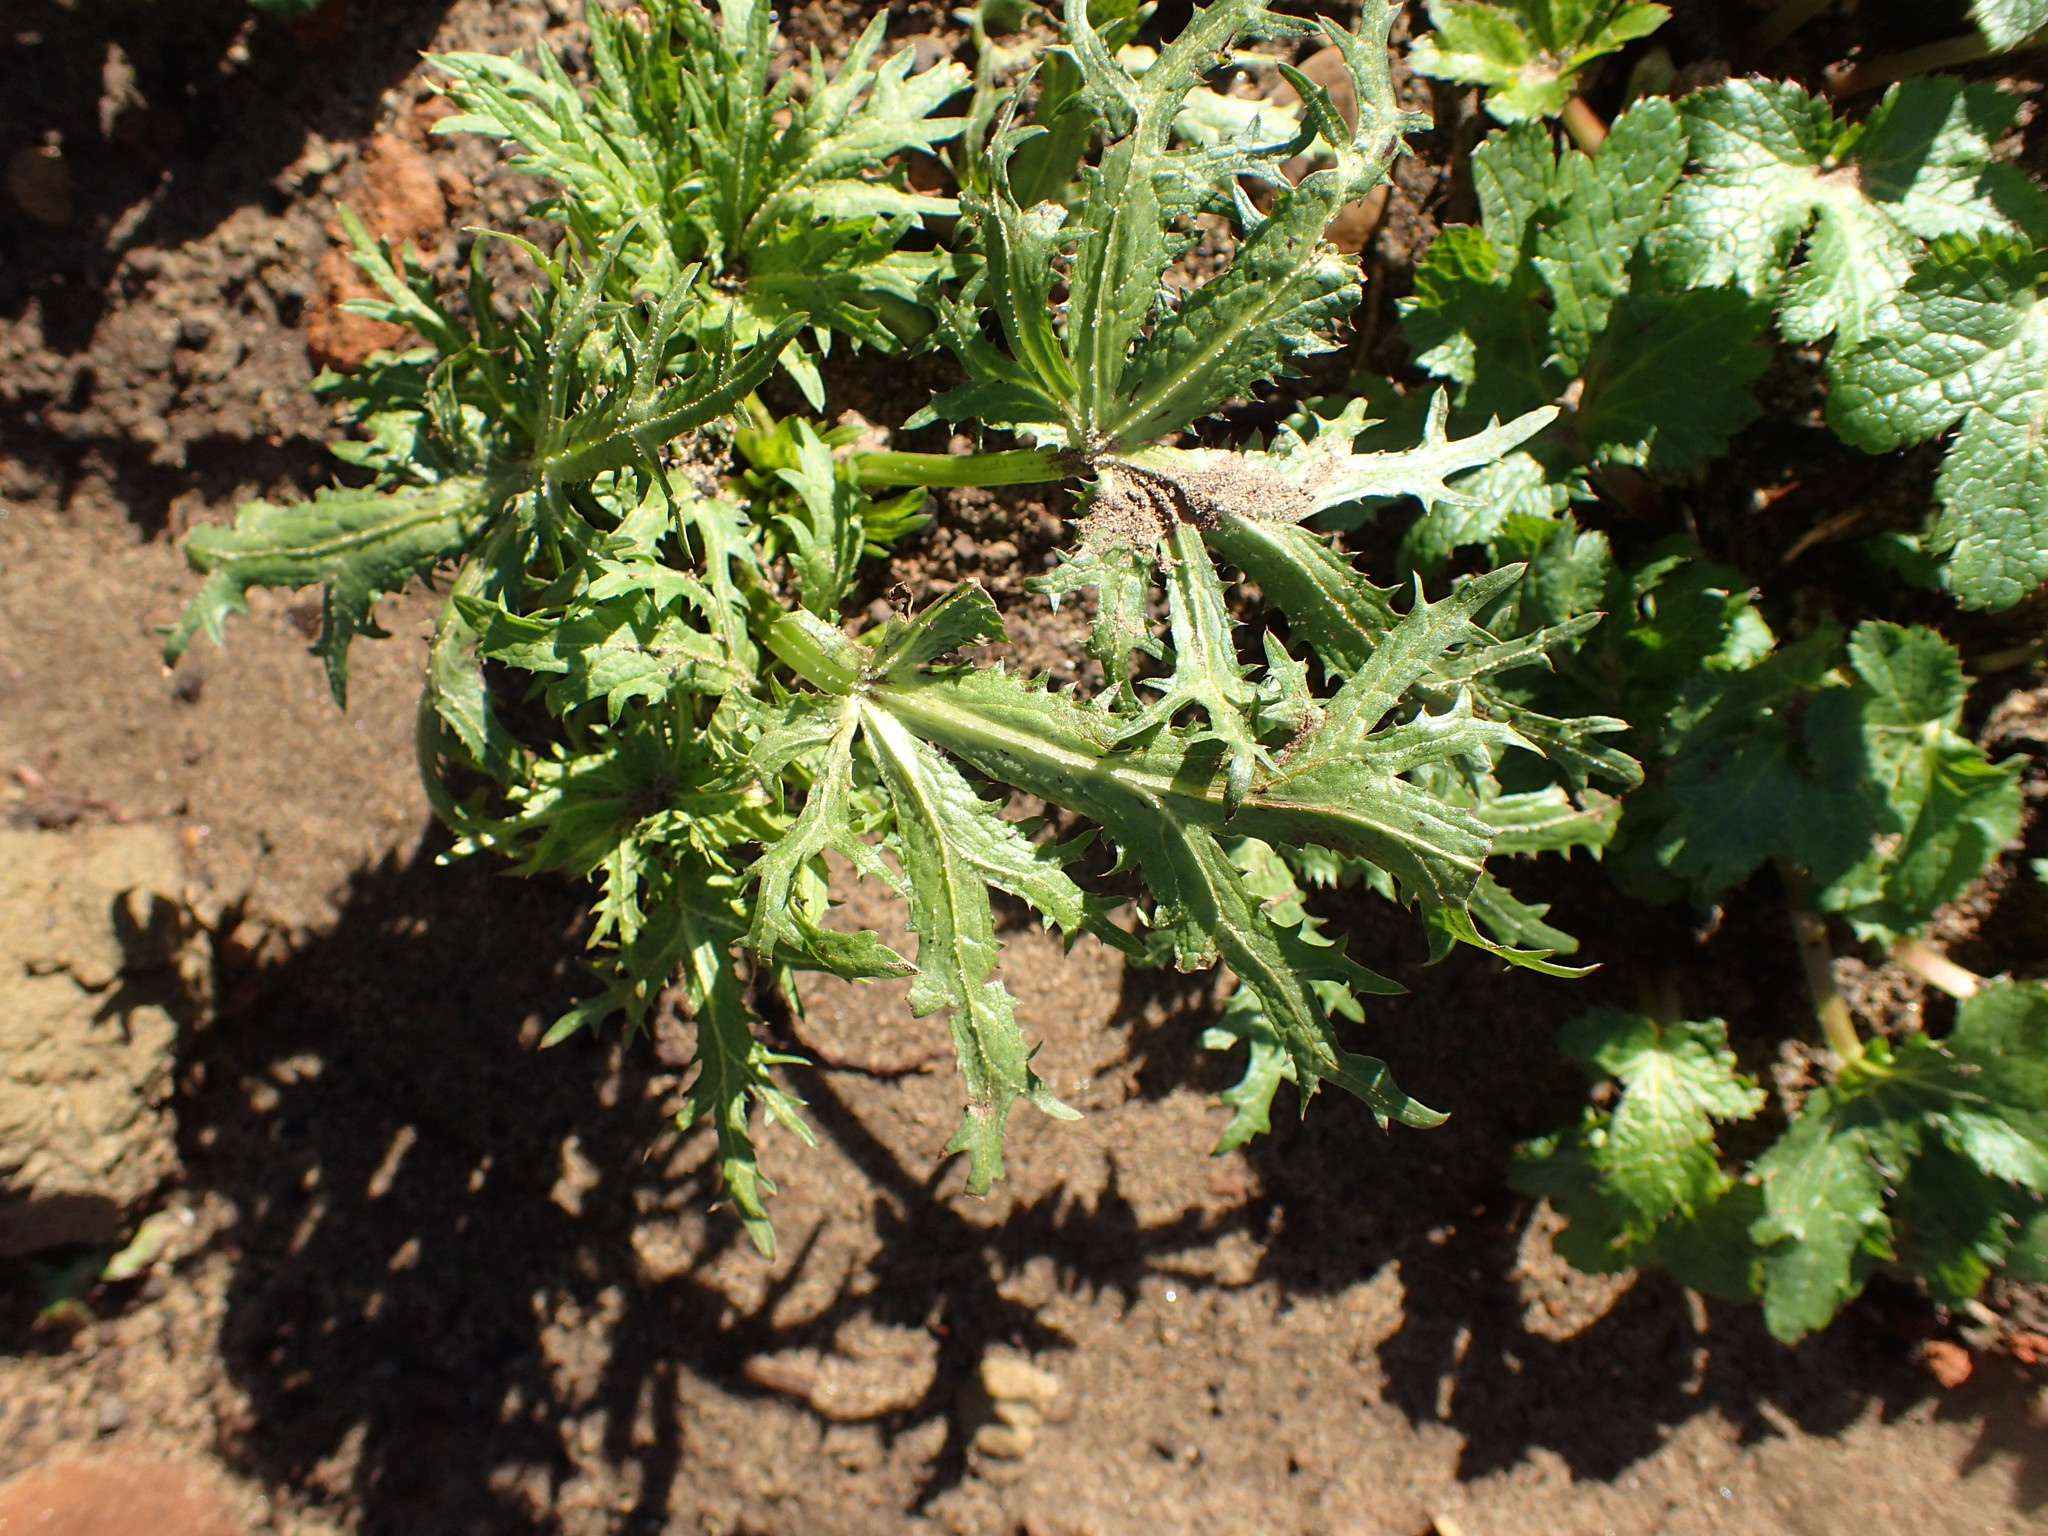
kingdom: Plantae
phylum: Tracheophyta
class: Magnoliopsida
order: Apiales
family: Apiaceae
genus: Sanicula
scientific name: Sanicula arguta
